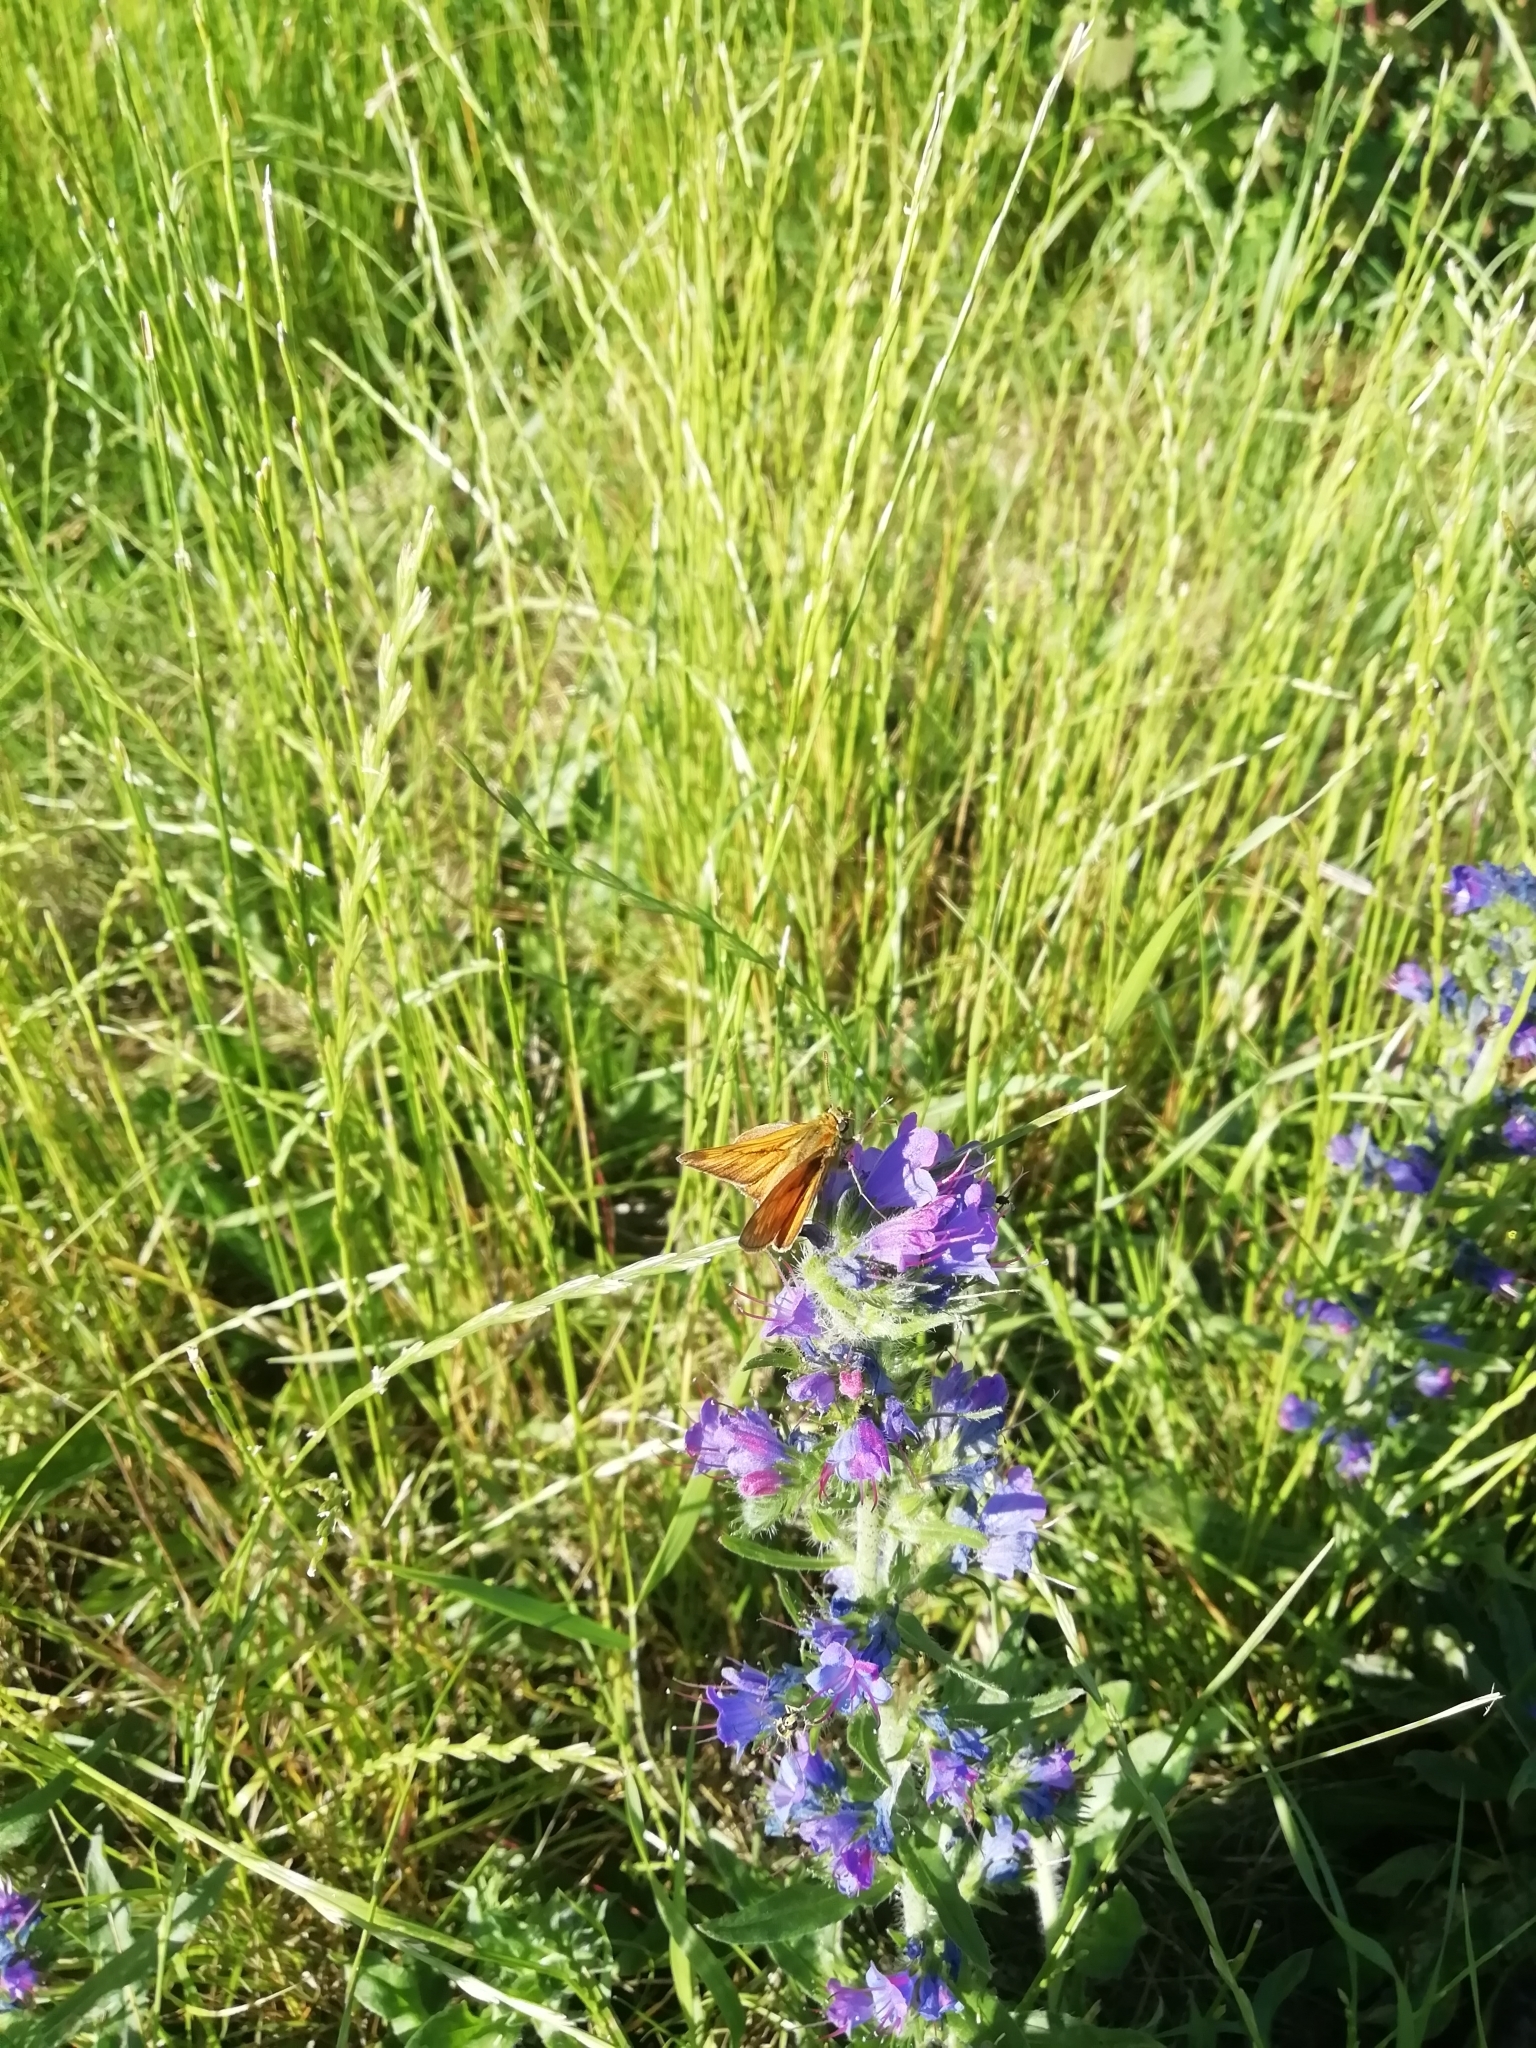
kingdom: Animalia
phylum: Arthropoda
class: Insecta
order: Lepidoptera
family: Hesperiidae
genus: Ochlodes
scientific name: Ochlodes venata
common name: Large skipper
